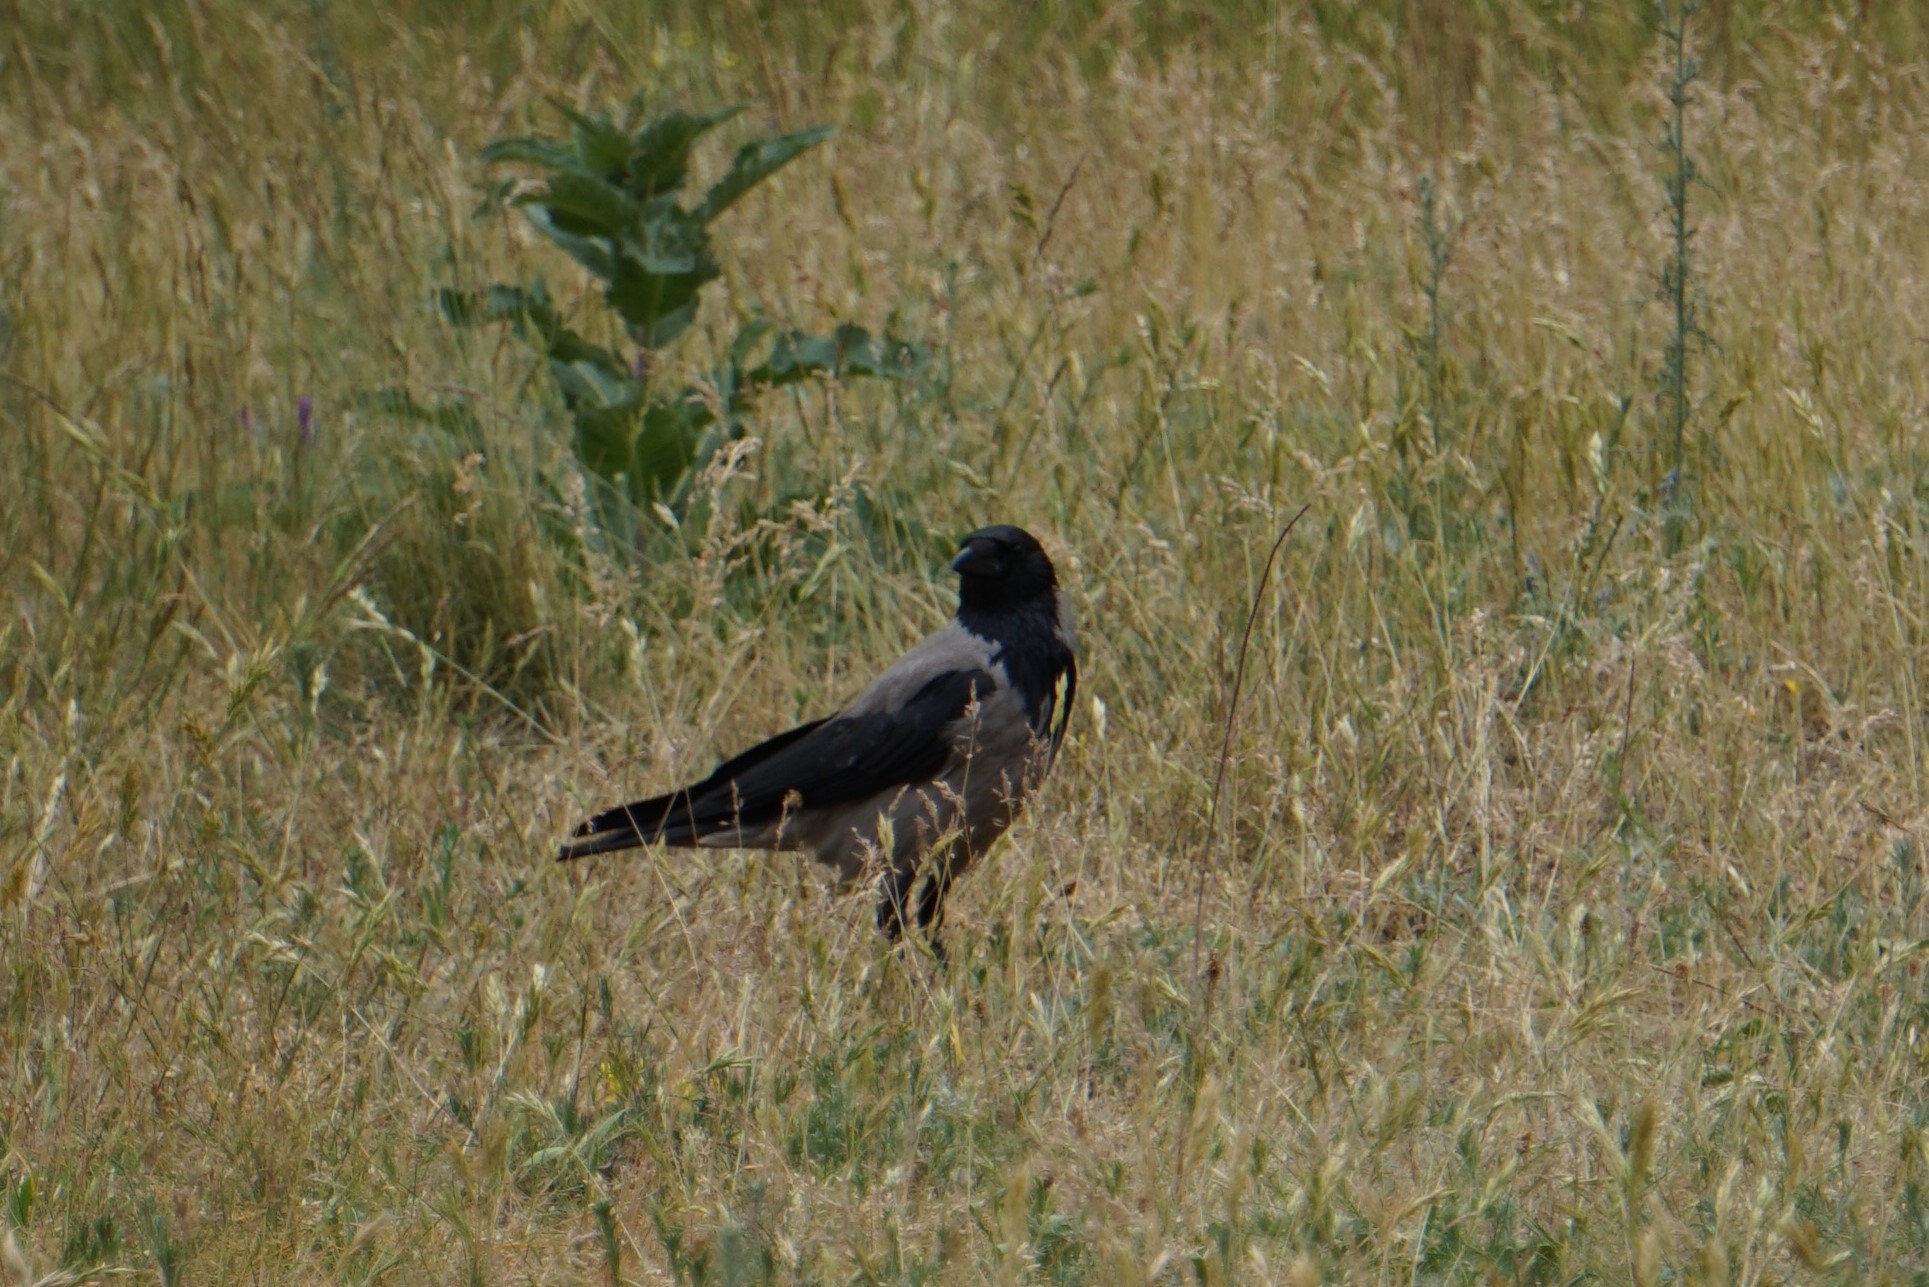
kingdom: Animalia
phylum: Chordata
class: Aves
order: Passeriformes
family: Corvidae
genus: Corvus
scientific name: Corvus cornix
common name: Hooded crow
